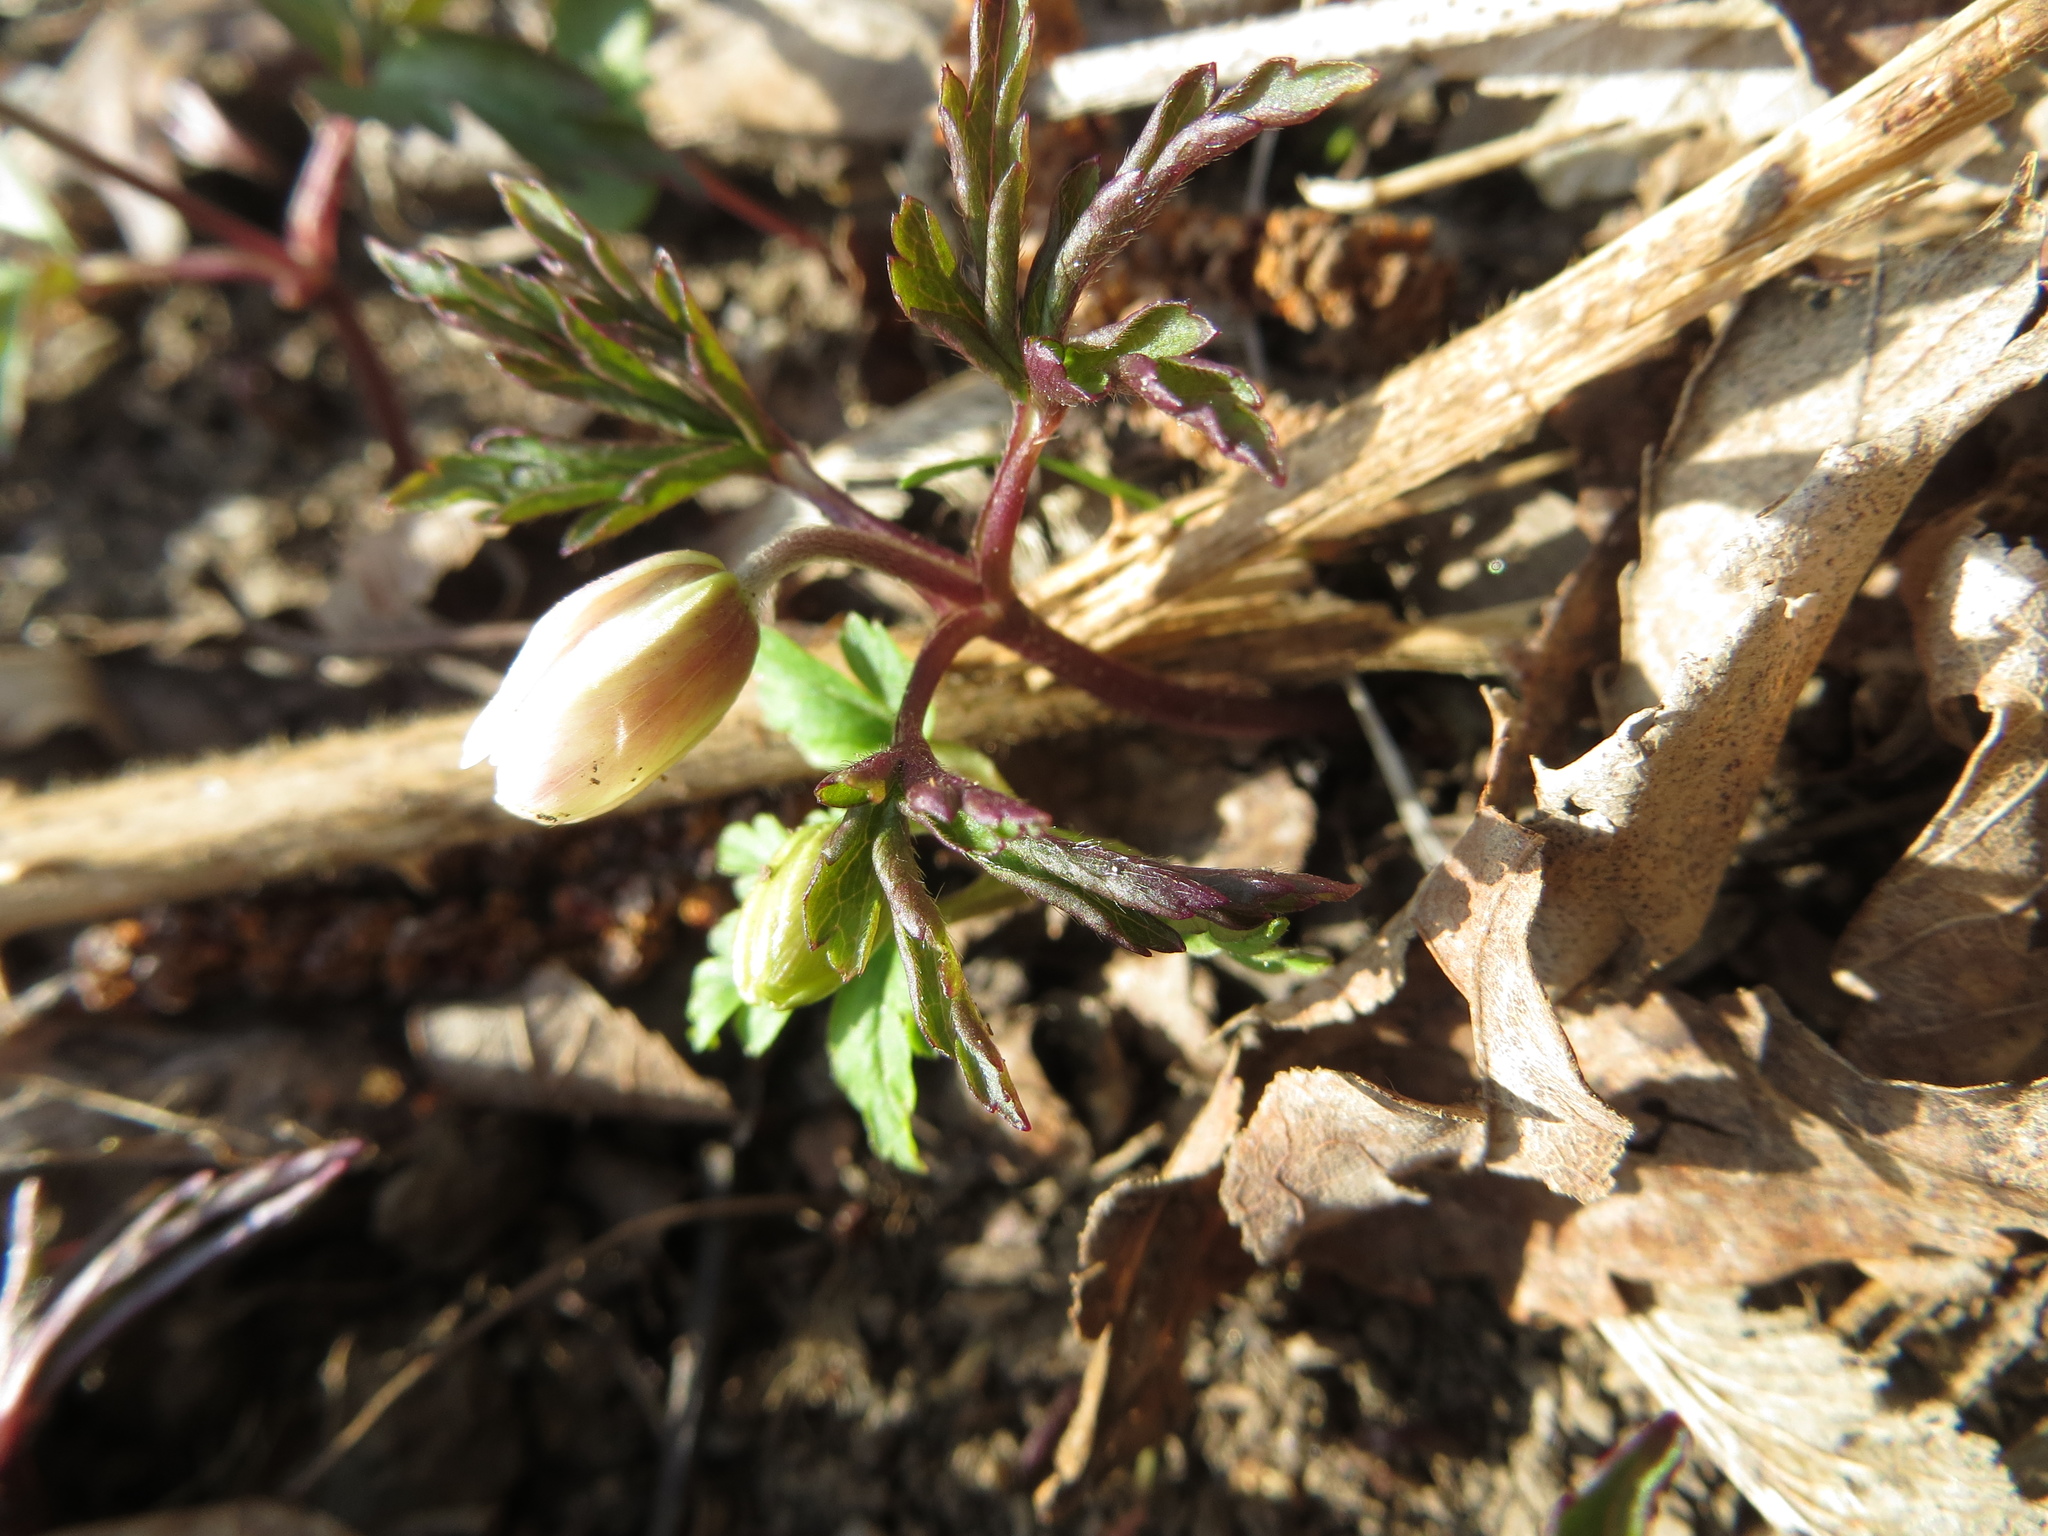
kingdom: Plantae
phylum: Tracheophyta
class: Magnoliopsida
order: Ranunculales
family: Ranunculaceae
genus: Anemone
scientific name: Anemone nemorosa
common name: Wood anemone
